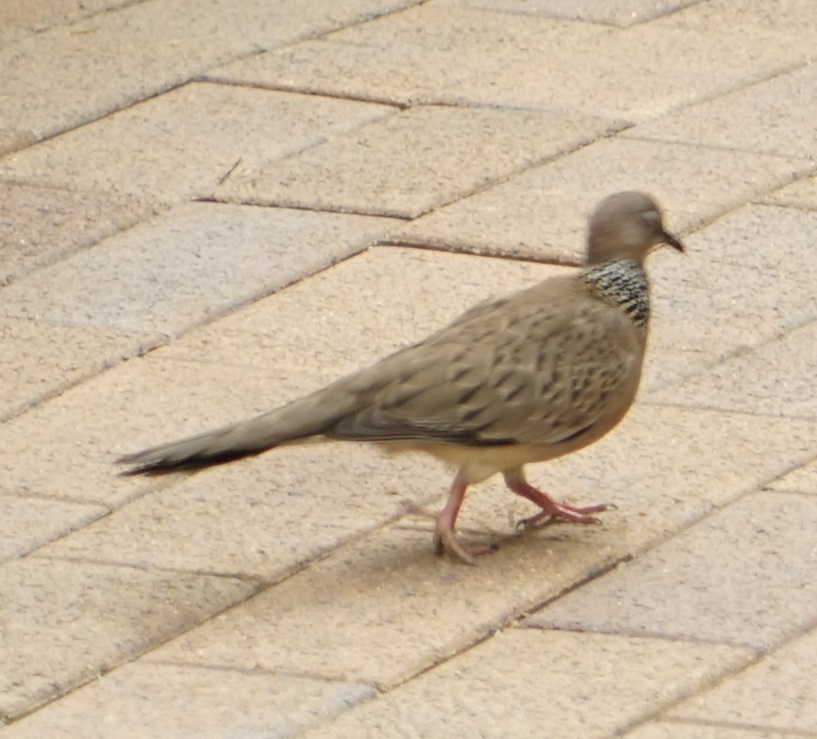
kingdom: Animalia
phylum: Chordata
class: Aves
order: Columbiformes
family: Columbidae
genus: Spilopelia
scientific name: Spilopelia chinensis
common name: Spotted dove
